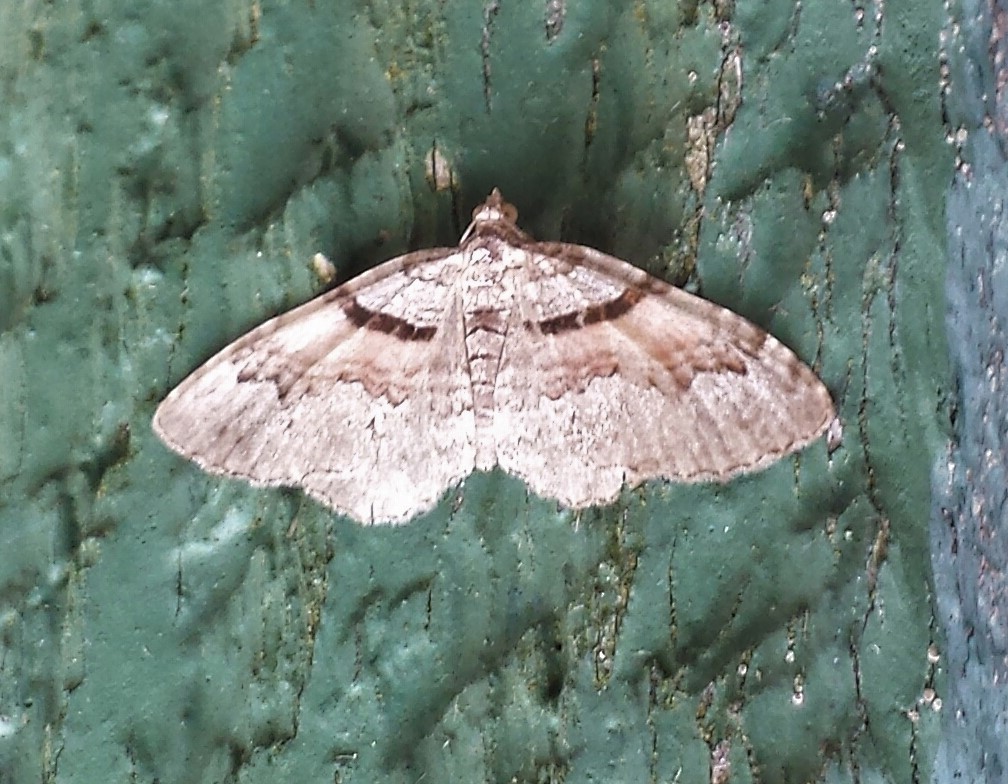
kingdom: Animalia
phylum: Arthropoda
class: Insecta
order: Lepidoptera
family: Geometridae
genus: Xanthorhoe
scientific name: Xanthorhoe labradorensis
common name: Labrador carpet
